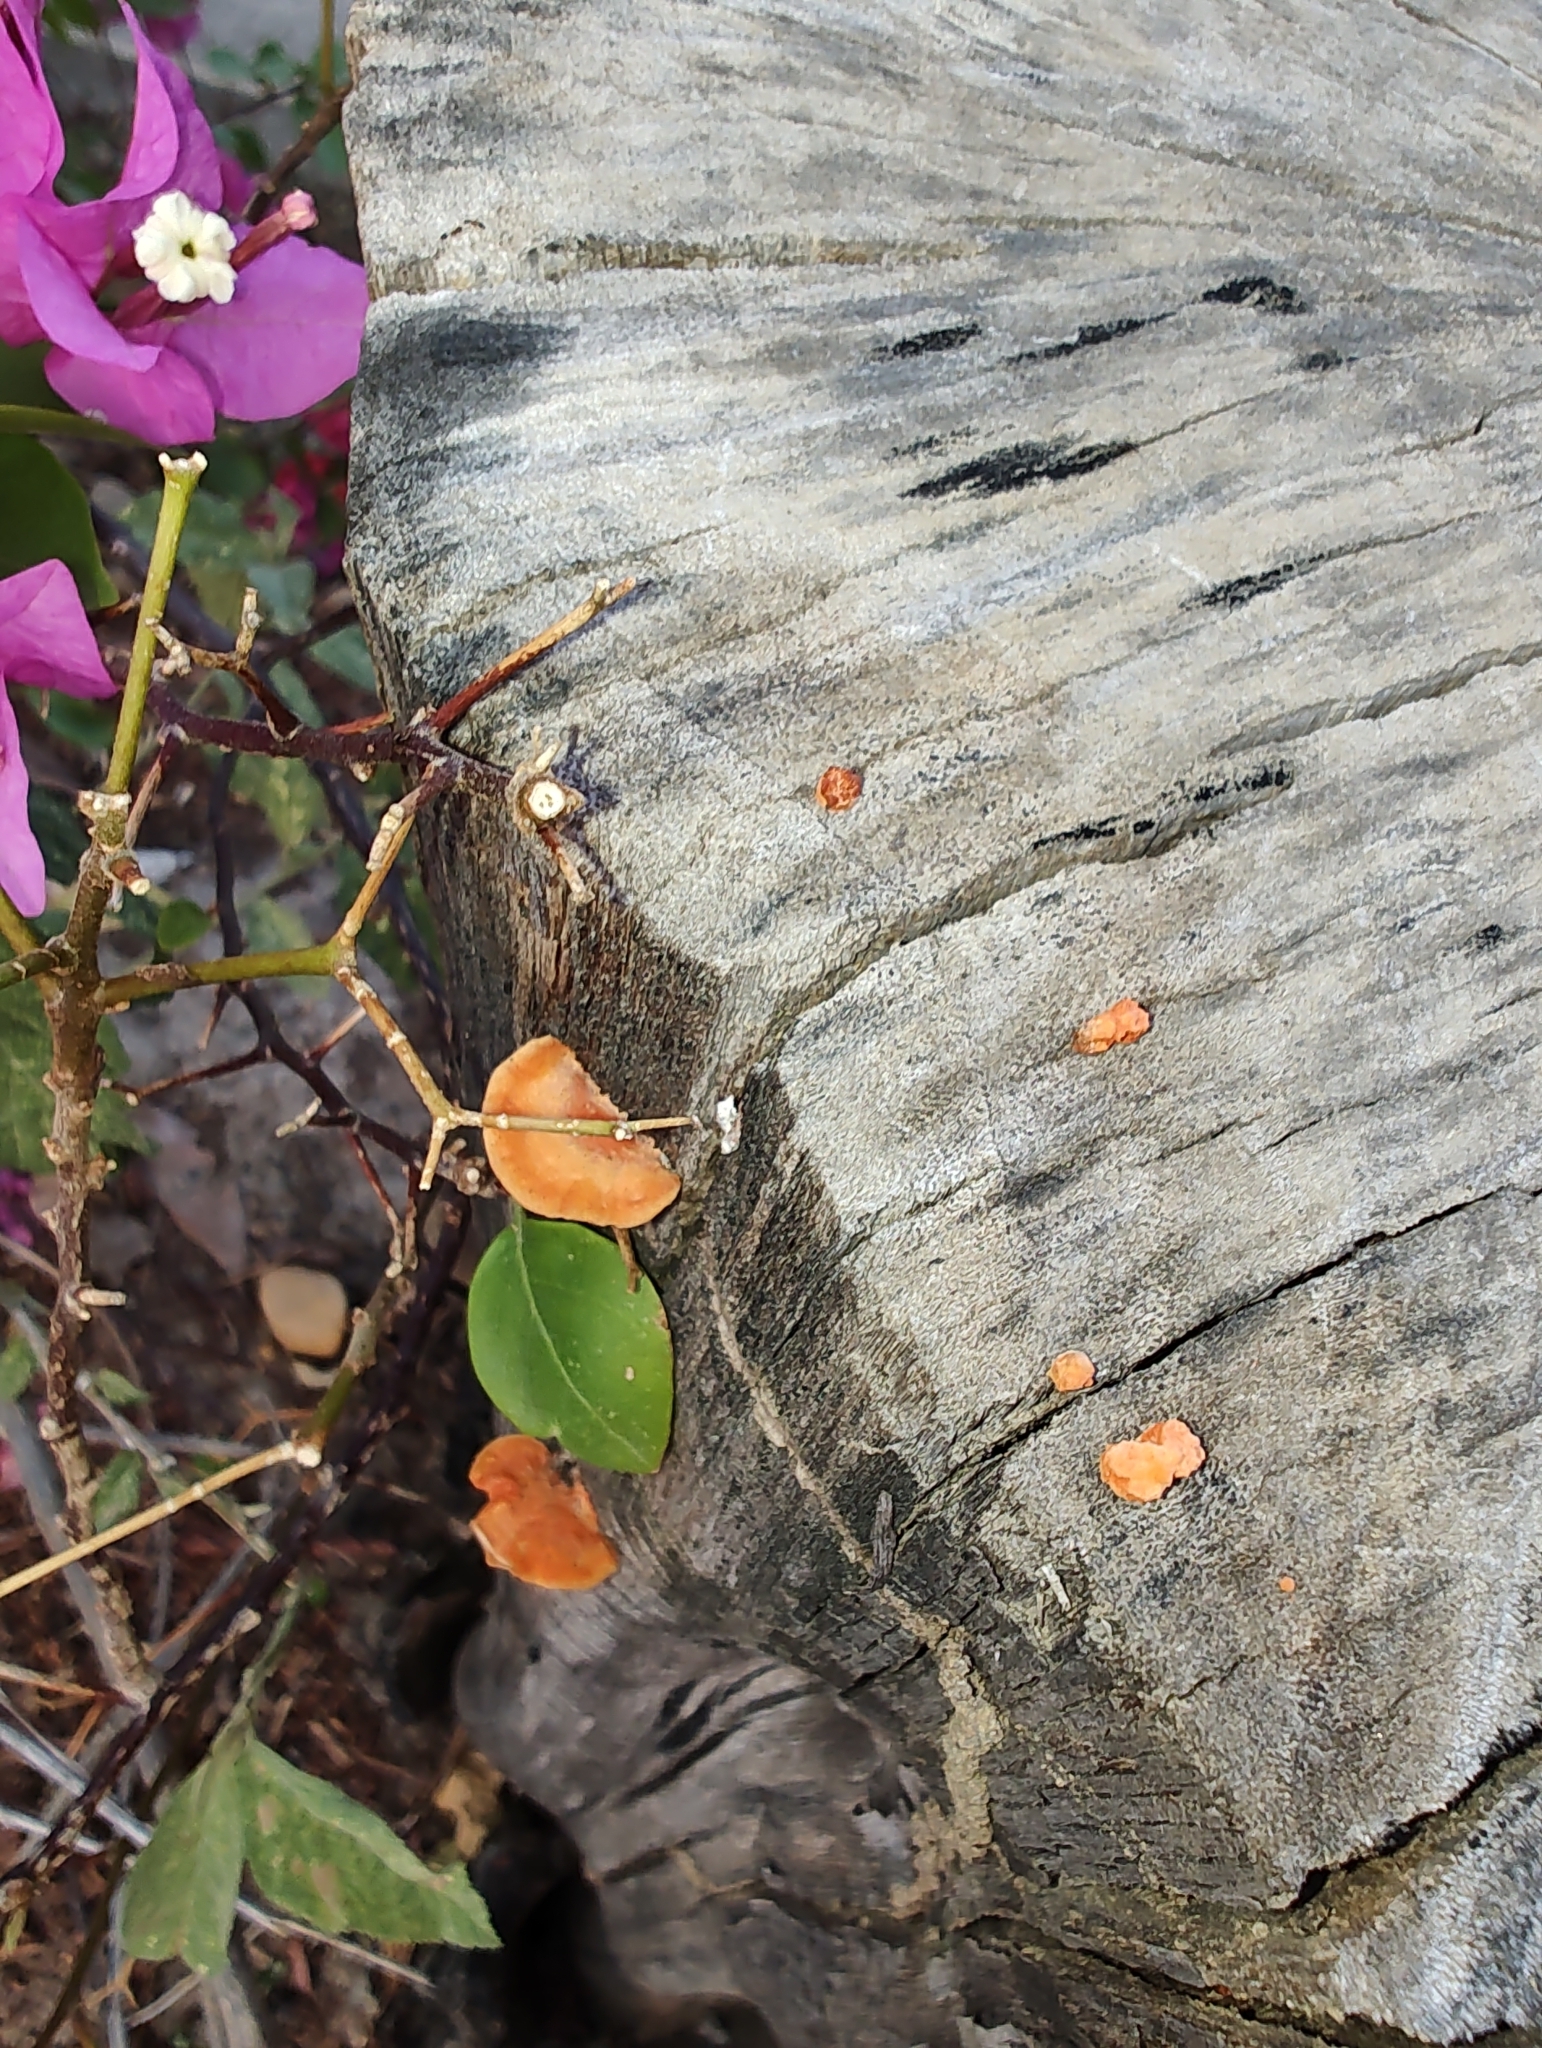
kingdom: Fungi
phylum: Basidiomycota
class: Agaricomycetes
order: Polyporales
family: Polyporaceae
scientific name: Polyporaceae
